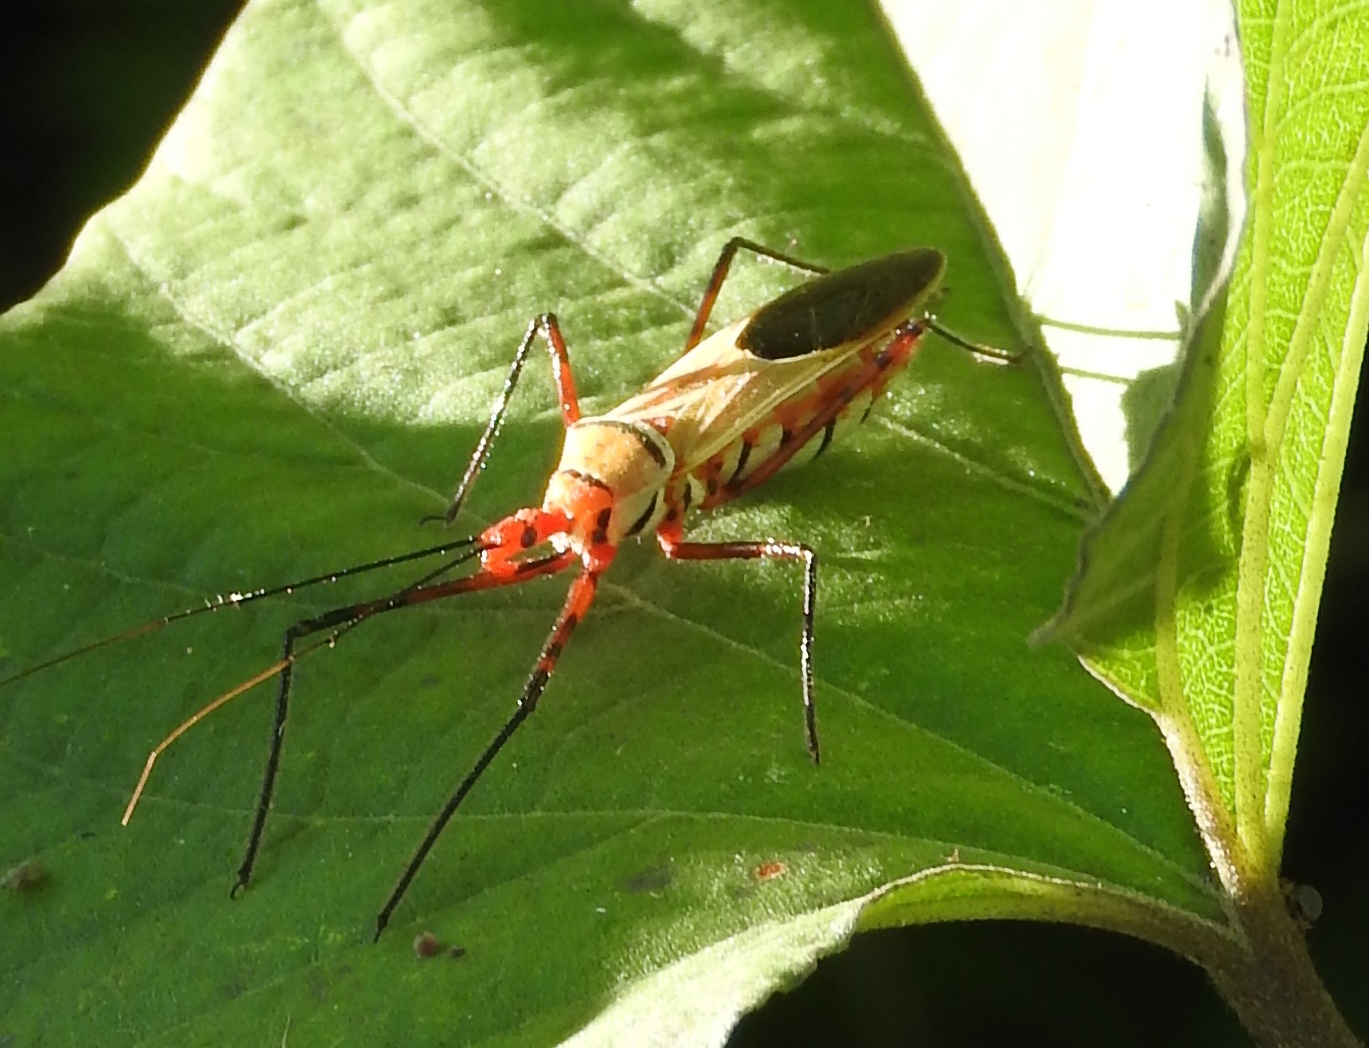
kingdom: Animalia
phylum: Arthropoda
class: Insecta
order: Hemiptera
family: Reduviidae
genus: Zelus
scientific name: Zelus grassans
